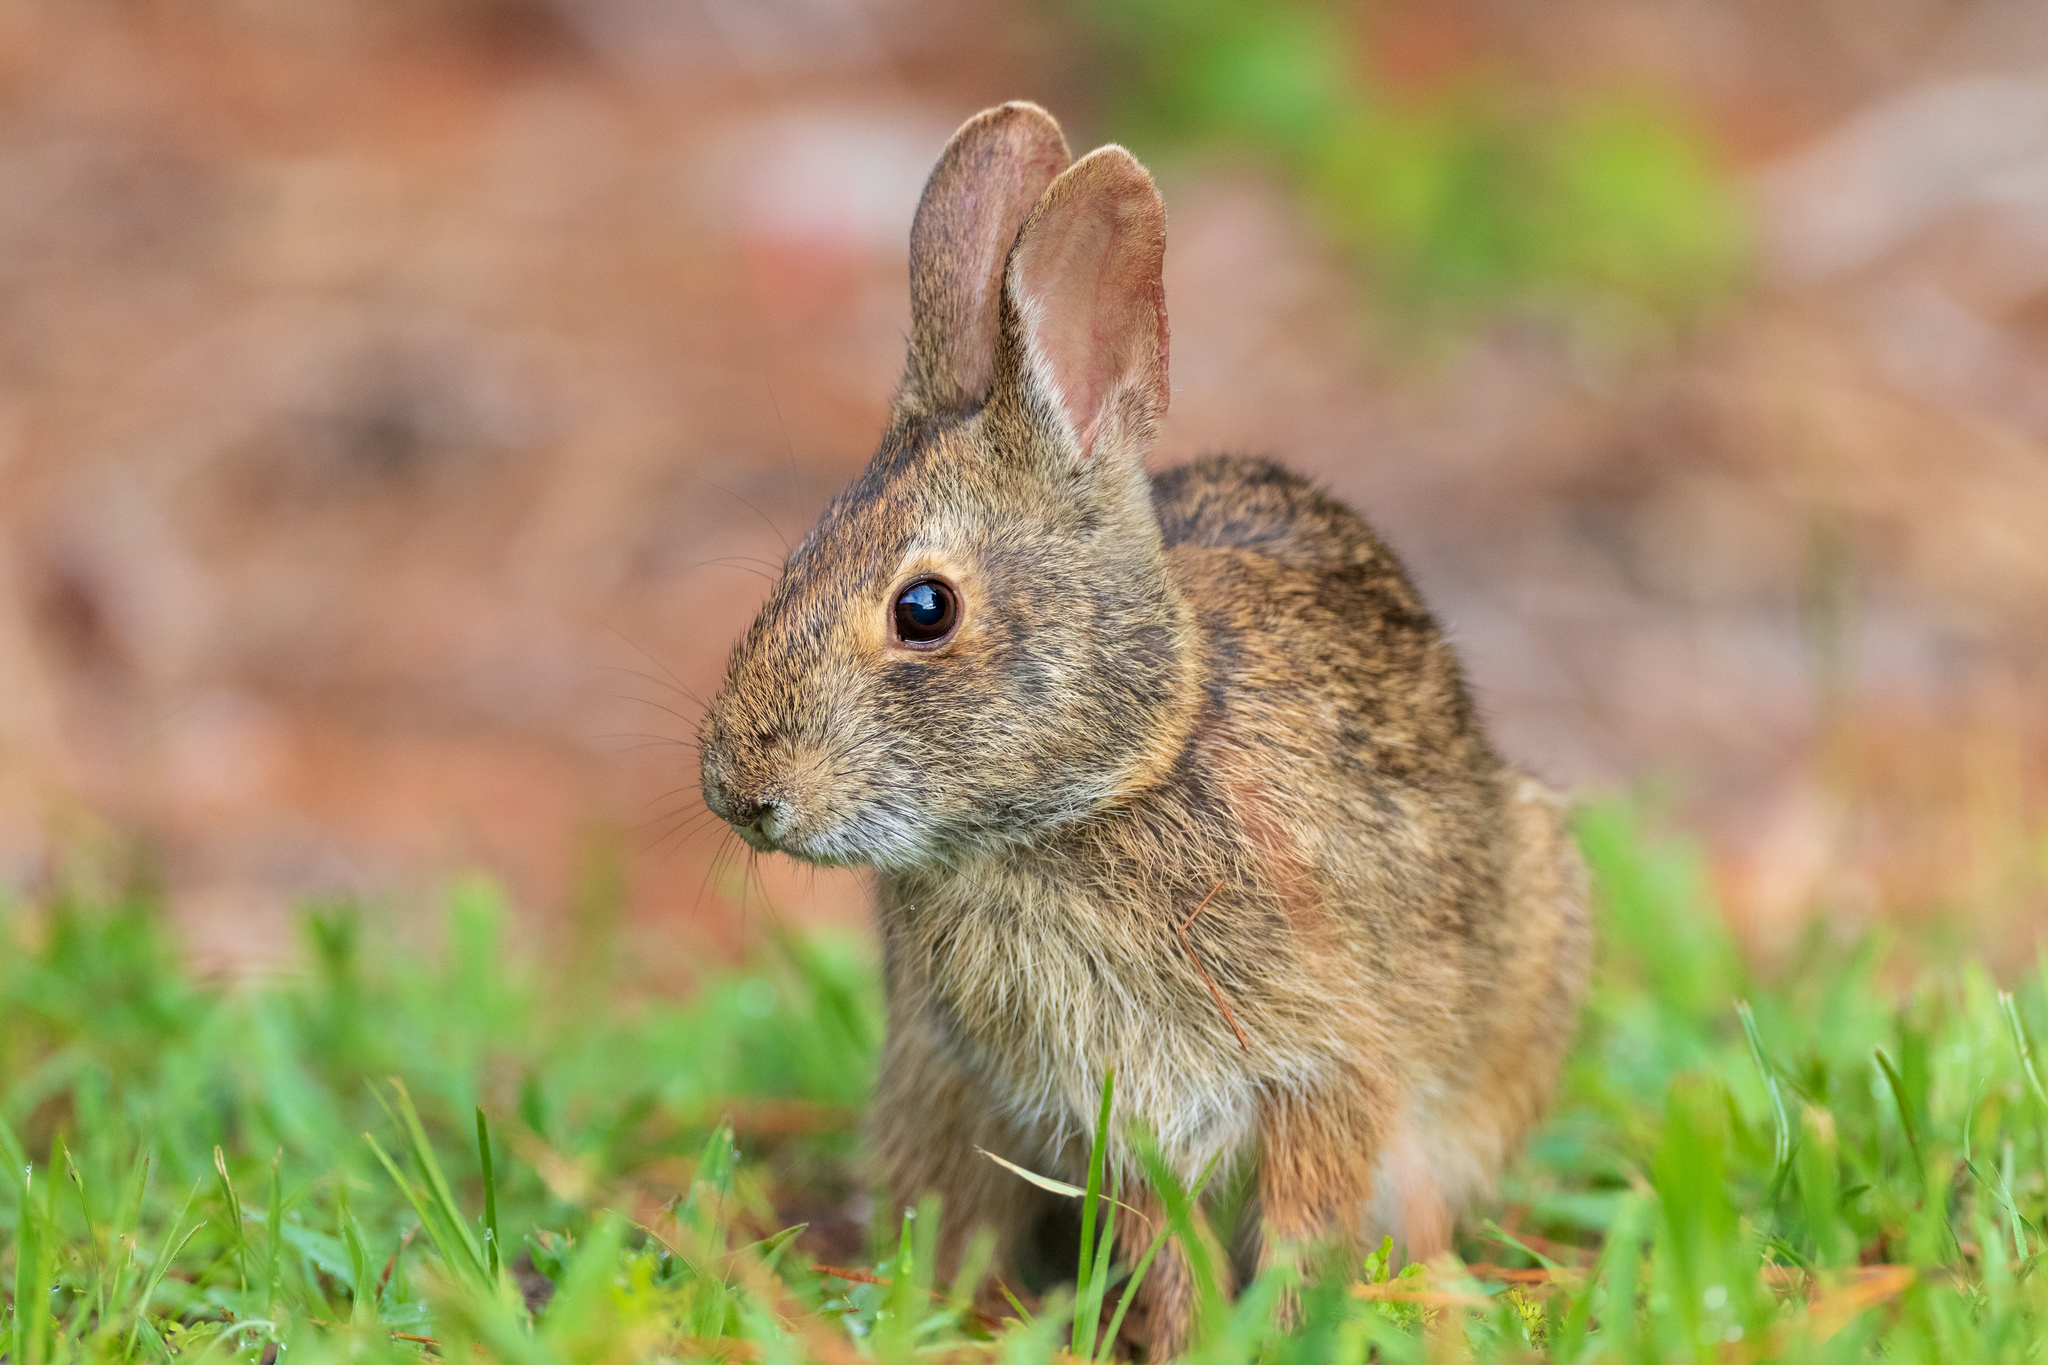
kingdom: Animalia
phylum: Chordata
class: Mammalia
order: Lagomorpha
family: Leporidae
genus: Sylvilagus
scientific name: Sylvilagus palustris
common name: Marsh rabbit
